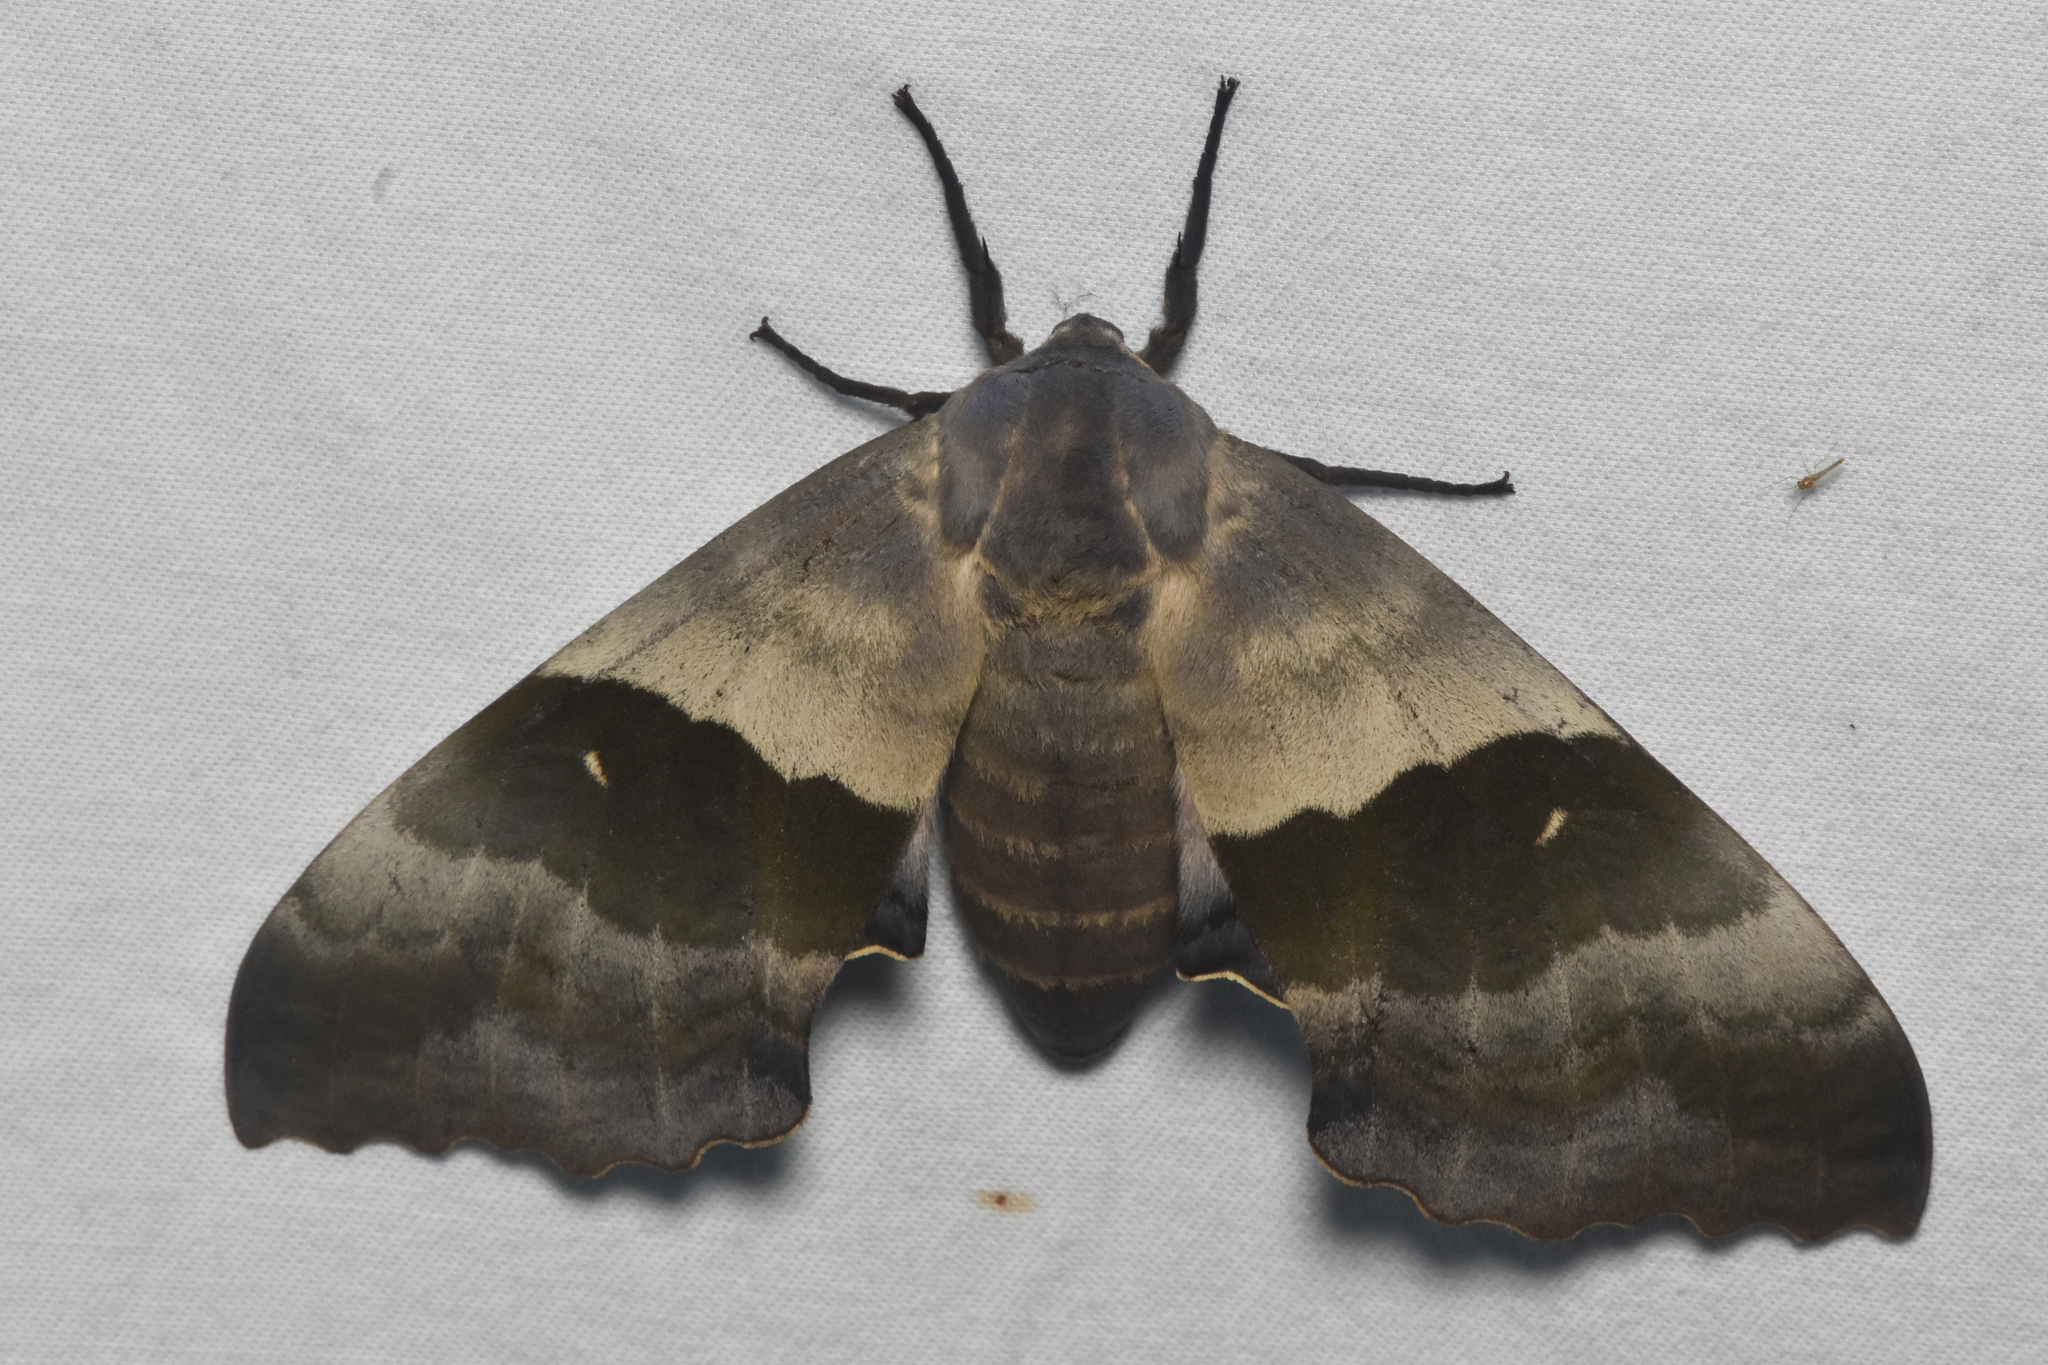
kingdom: Animalia
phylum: Arthropoda
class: Insecta
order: Lepidoptera
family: Sphingidae
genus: Pachysphinx
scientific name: Pachysphinx modesta
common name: Big poplar sphinx
